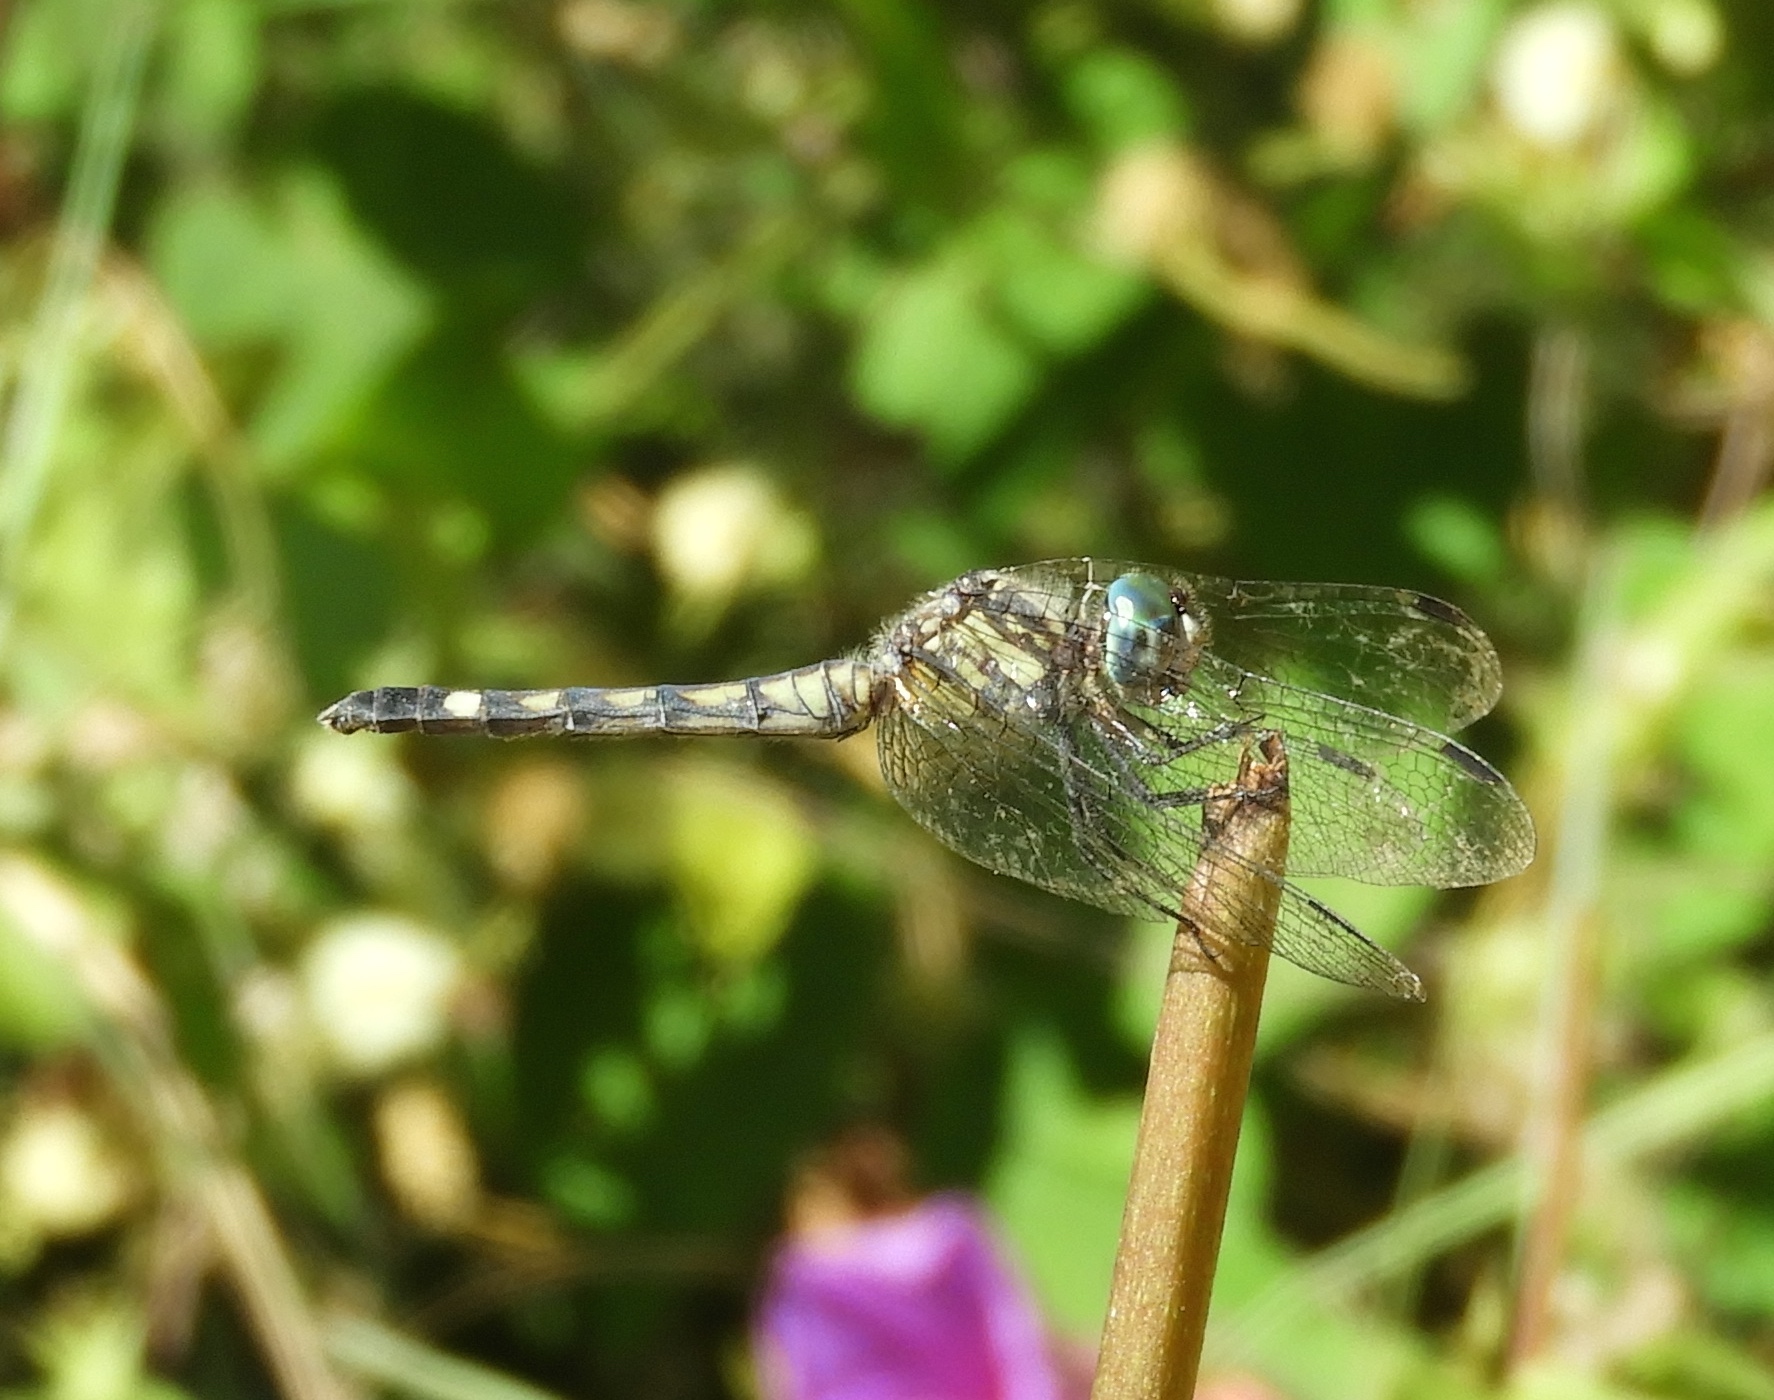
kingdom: Animalia
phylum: Arthropoda
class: Insecta
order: Odonata
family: Libellulidae
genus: Micrathyria
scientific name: Micrathyria hagenii
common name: Thornbush dasher
